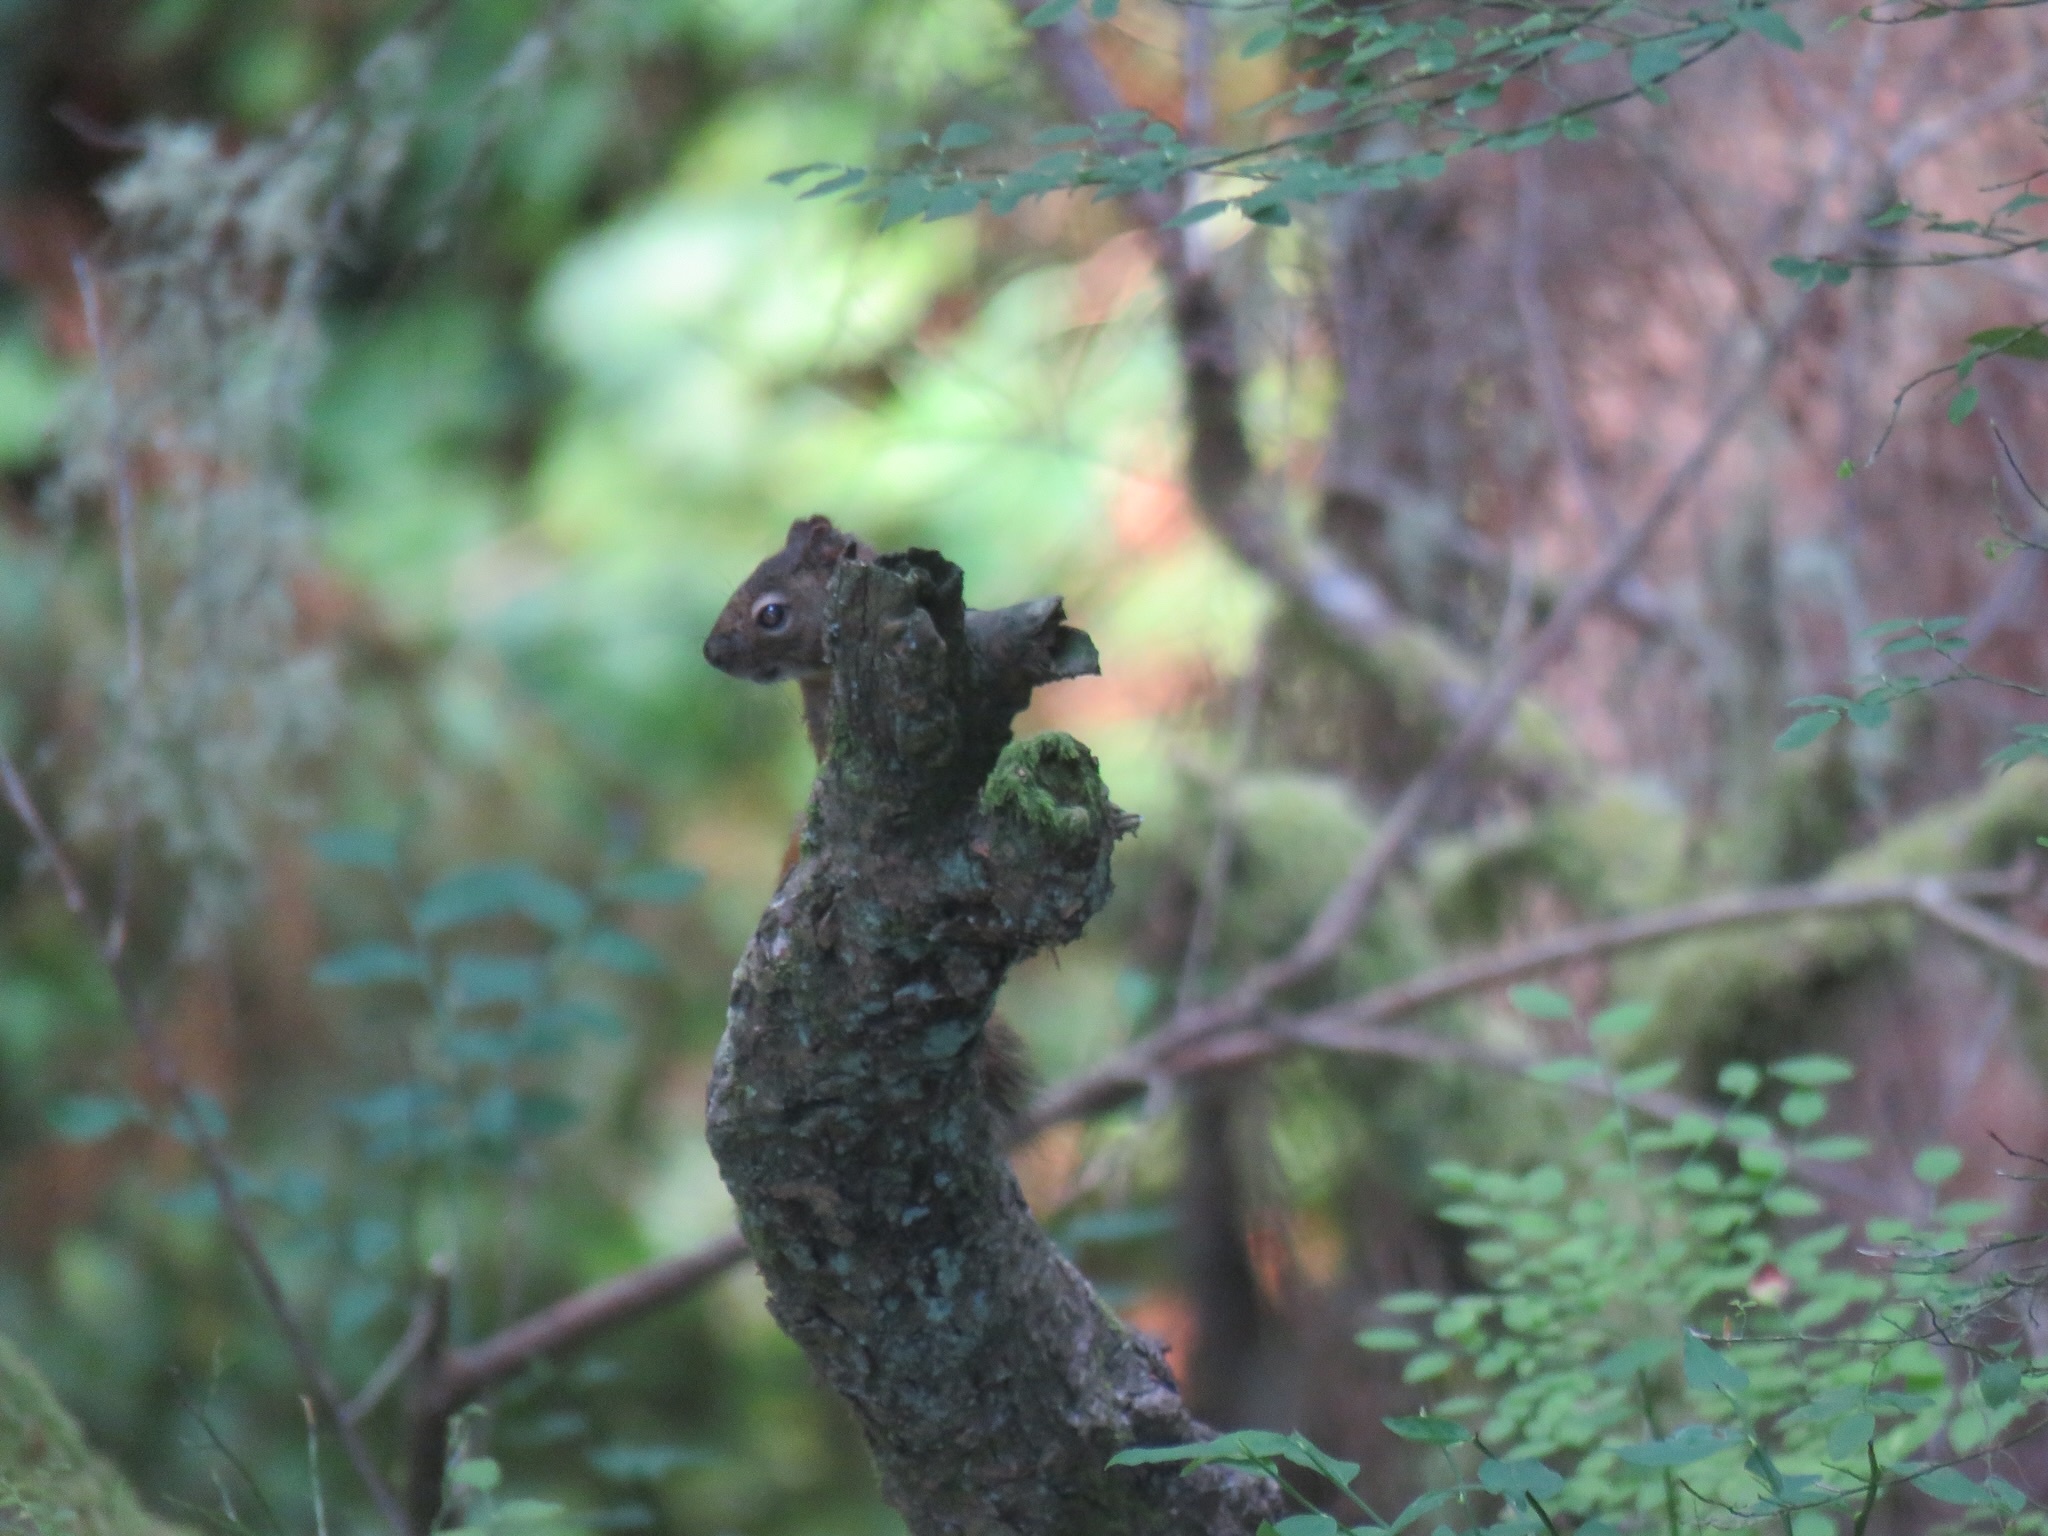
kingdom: Animalia
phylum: Chordata
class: Mammalia
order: Rodentia
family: Sciuridae
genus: Tamiasciurus
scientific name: Tamiasciurus hudsonicus
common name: Red squirrel
